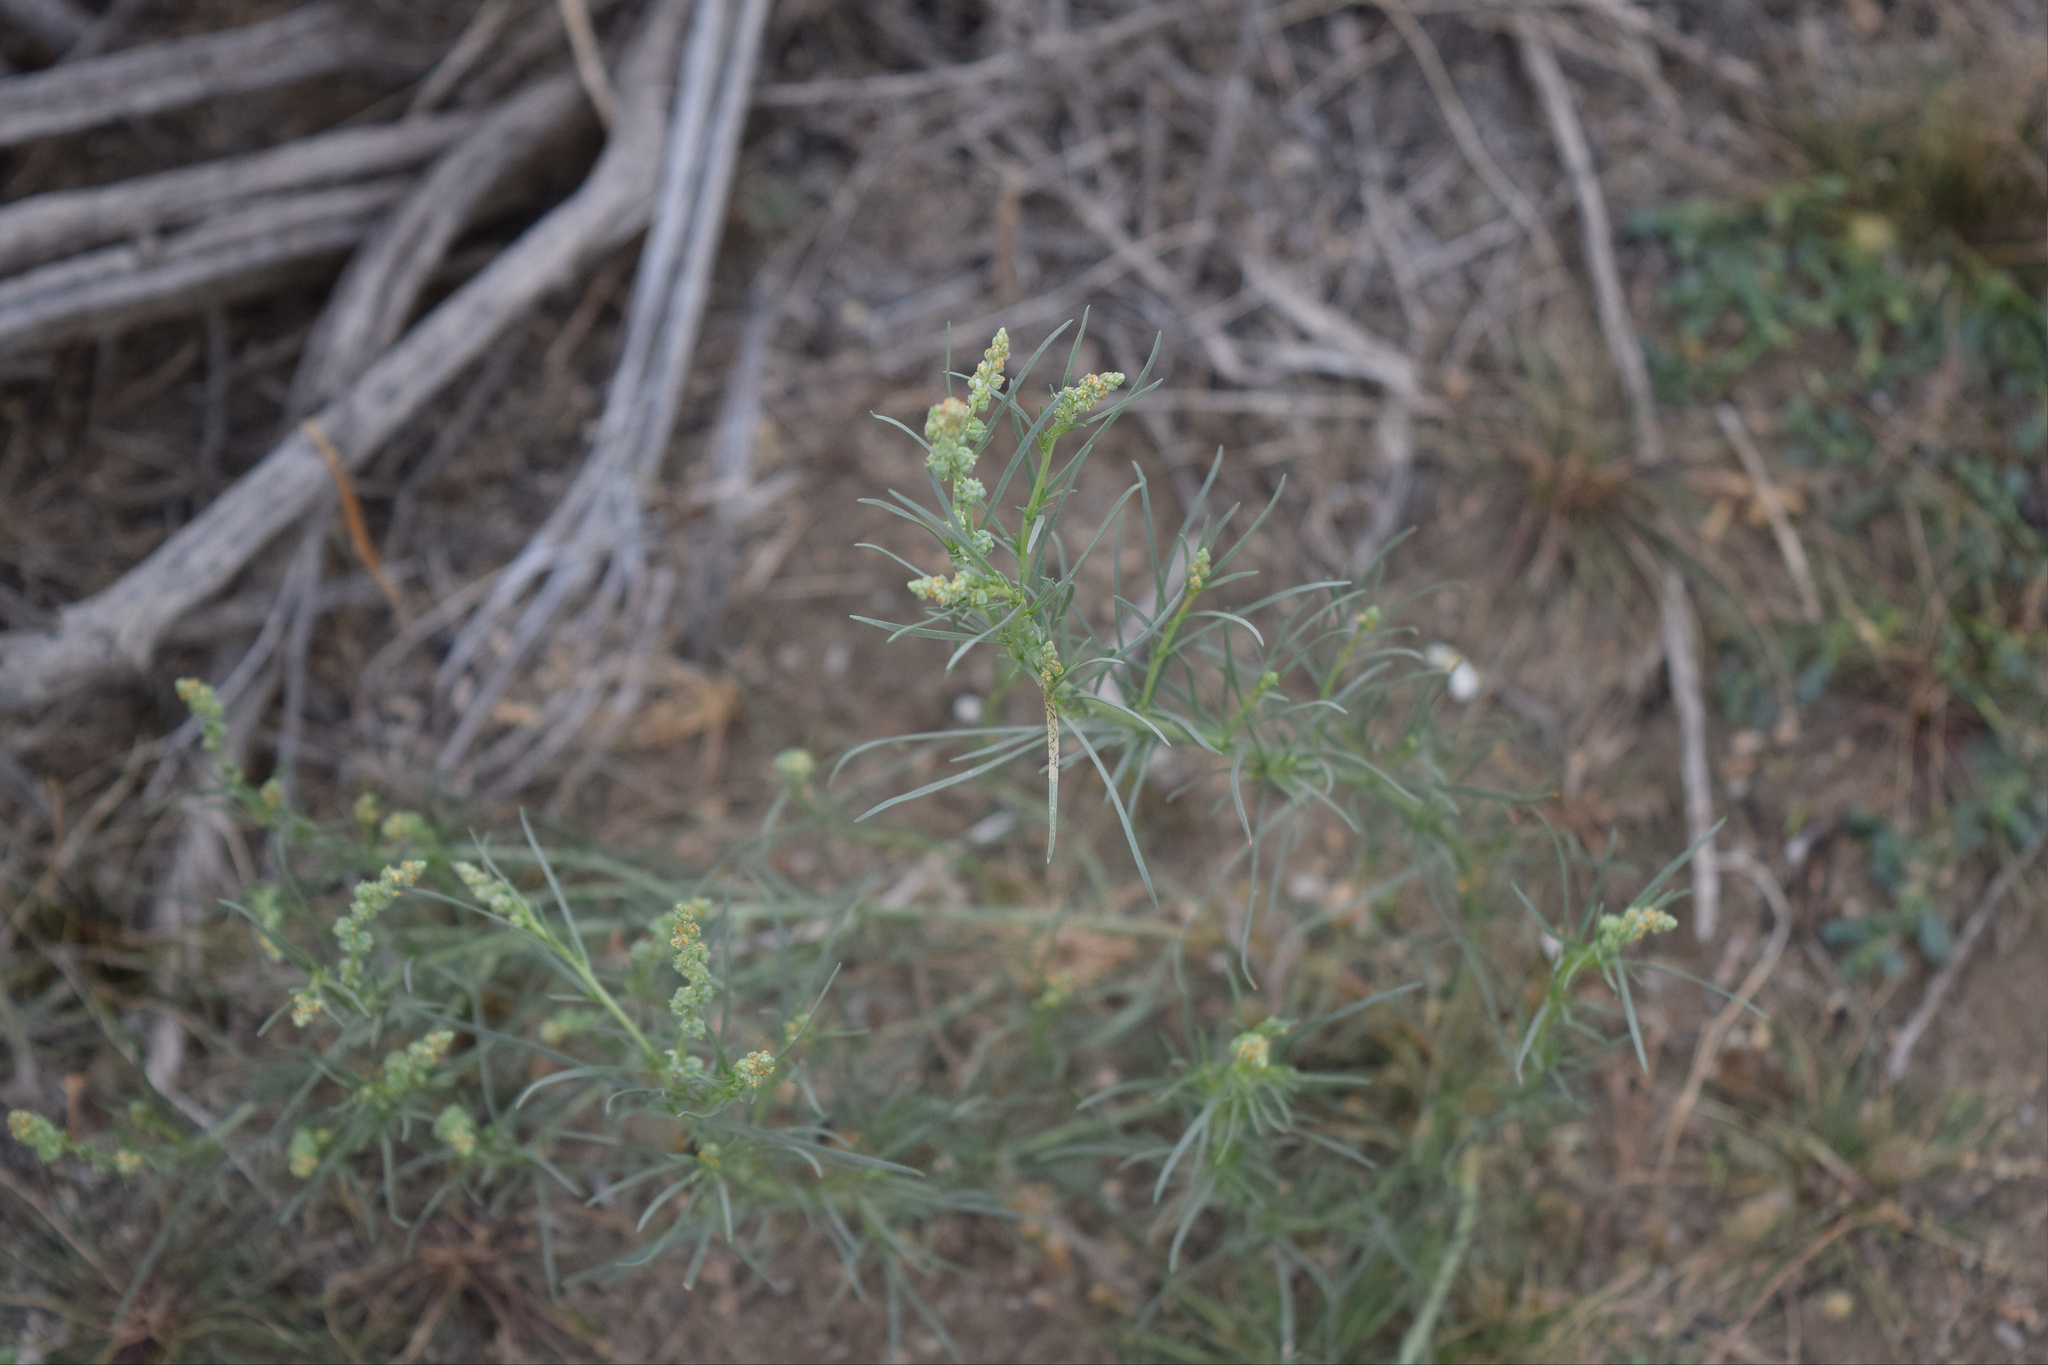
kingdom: Plantae
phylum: Tracheophyta
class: Magnoliopsida
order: Brassicales
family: Resedaceae
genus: Oligomeris
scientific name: Oligomeris linifolia
